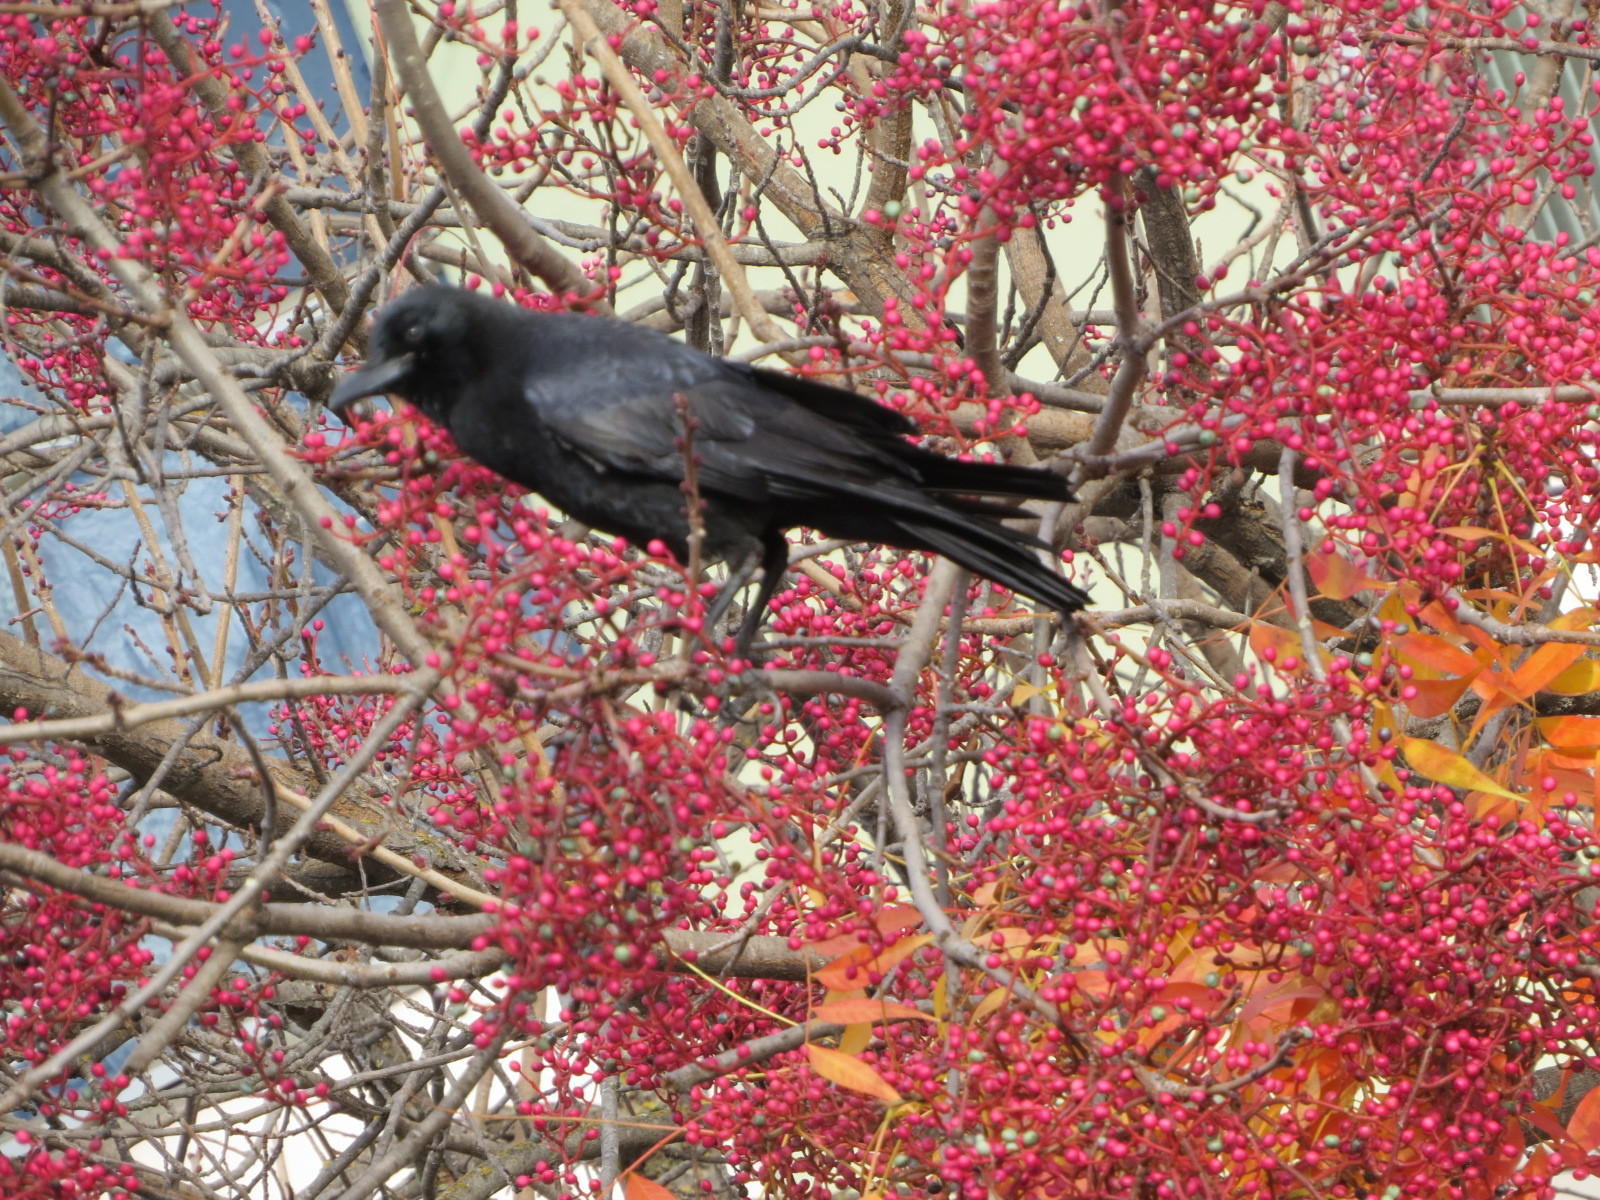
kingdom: Animalia
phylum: Chordata
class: Aves
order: Passeriformes
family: Corvidae
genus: Corvus
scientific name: Corvus brachyrhynchos
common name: American crow
